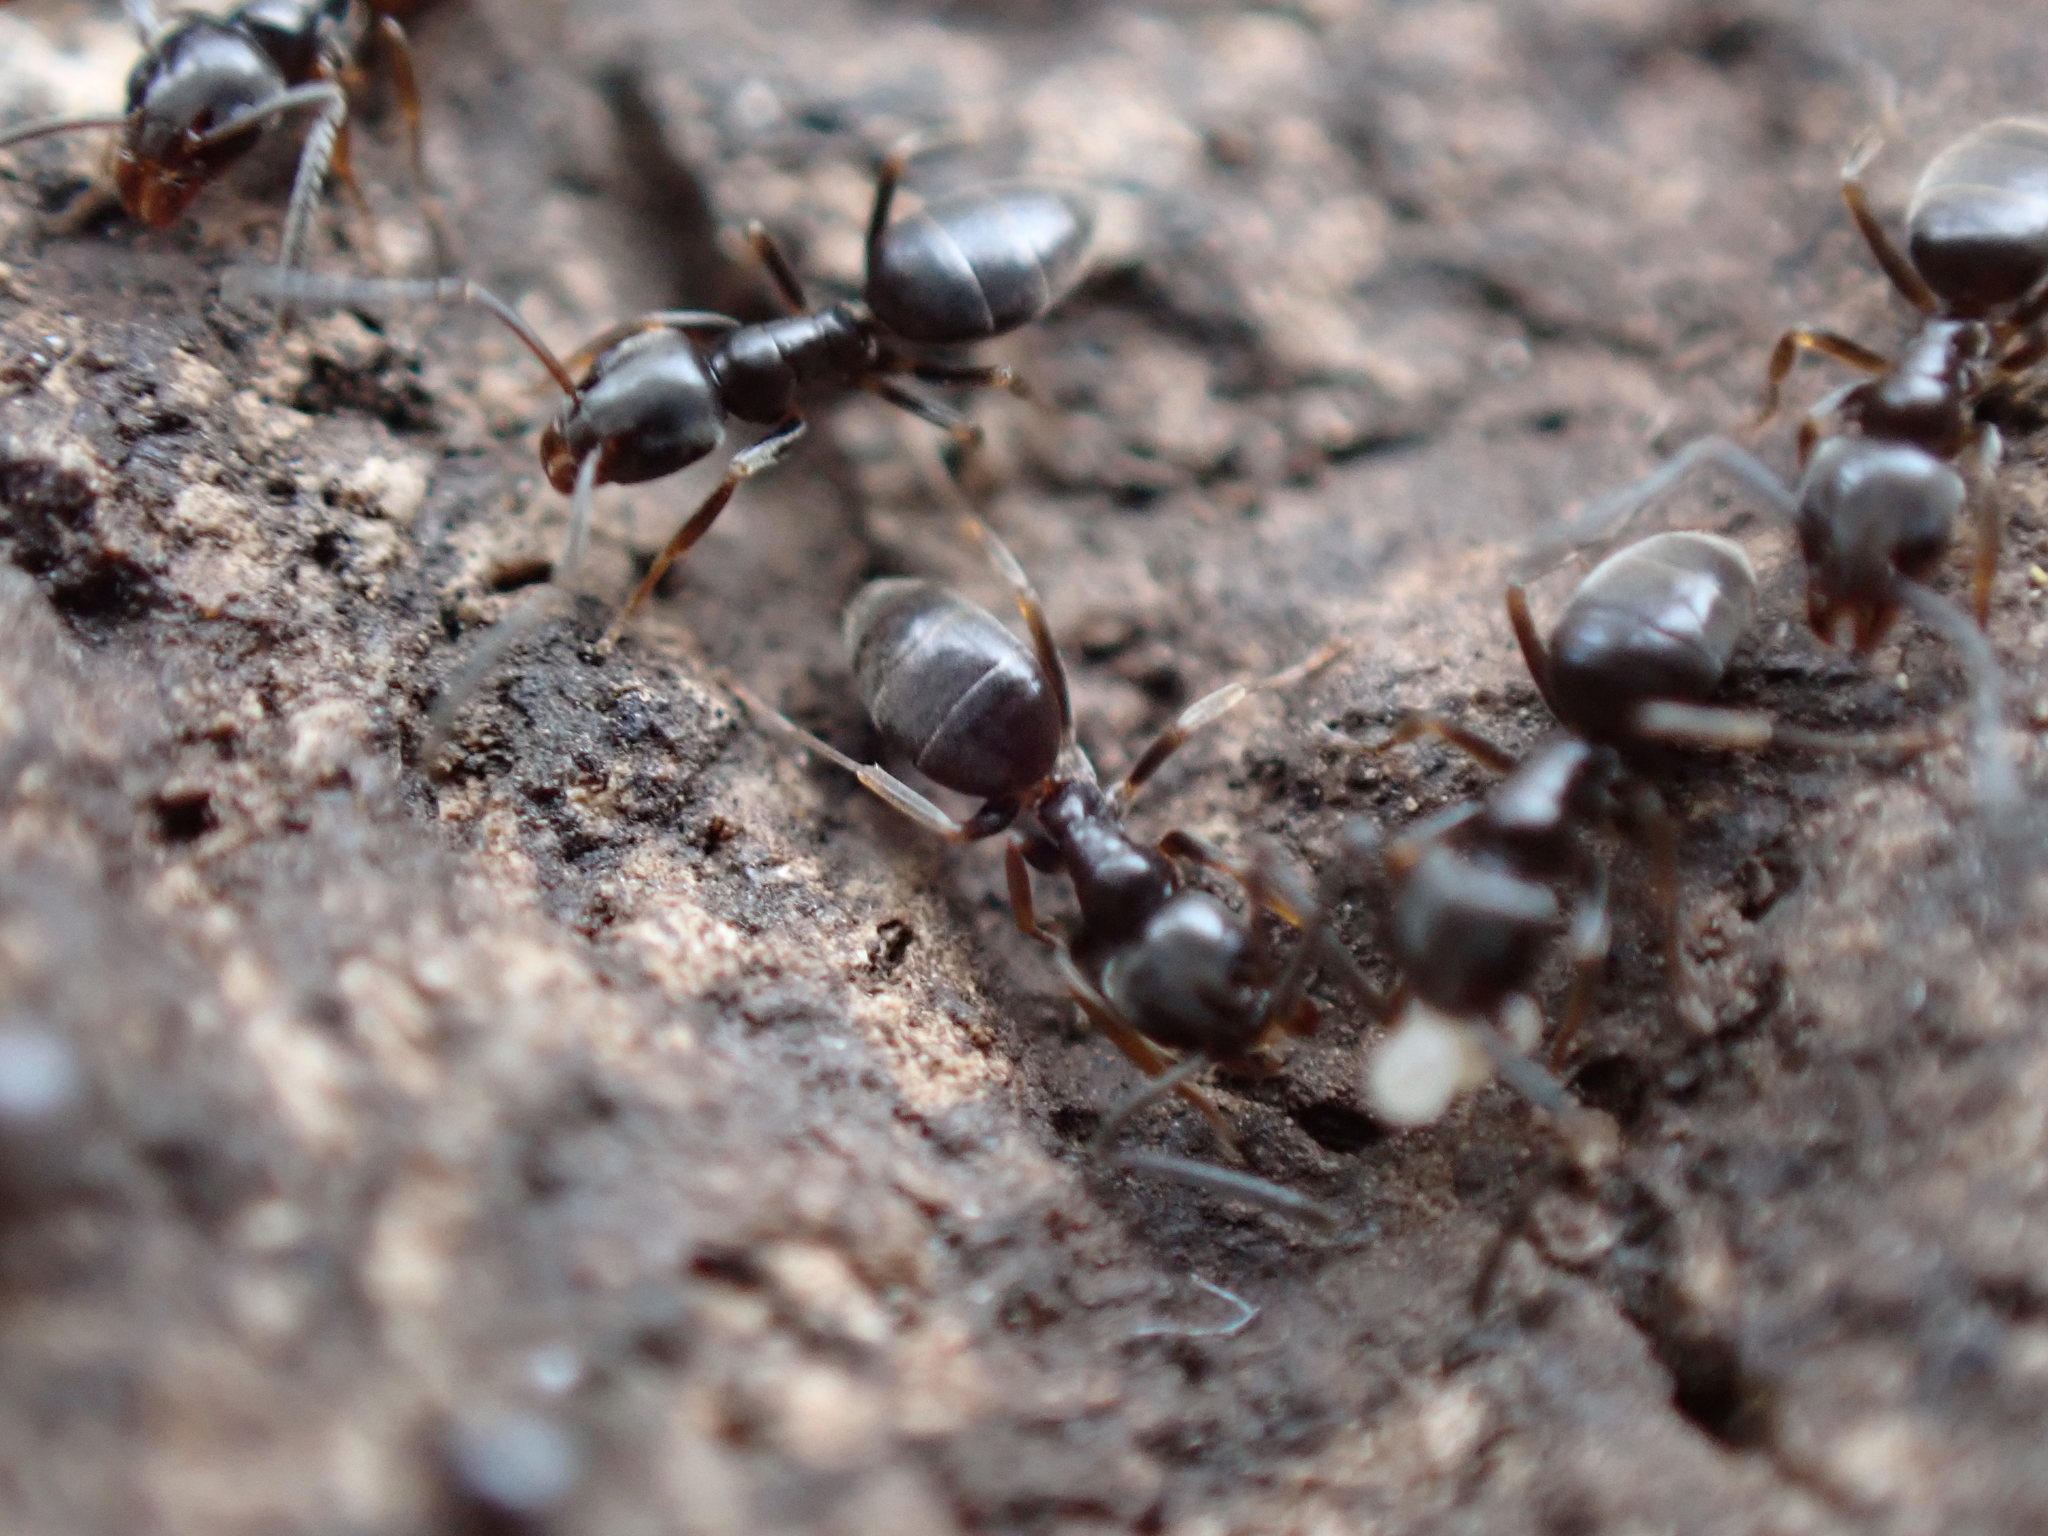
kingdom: Animalia
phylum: Arthropoda
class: Insecta
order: Hymenoptera
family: Formicidae
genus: Tapinoma
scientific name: Tapinoma sessile
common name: Odorous house ant
